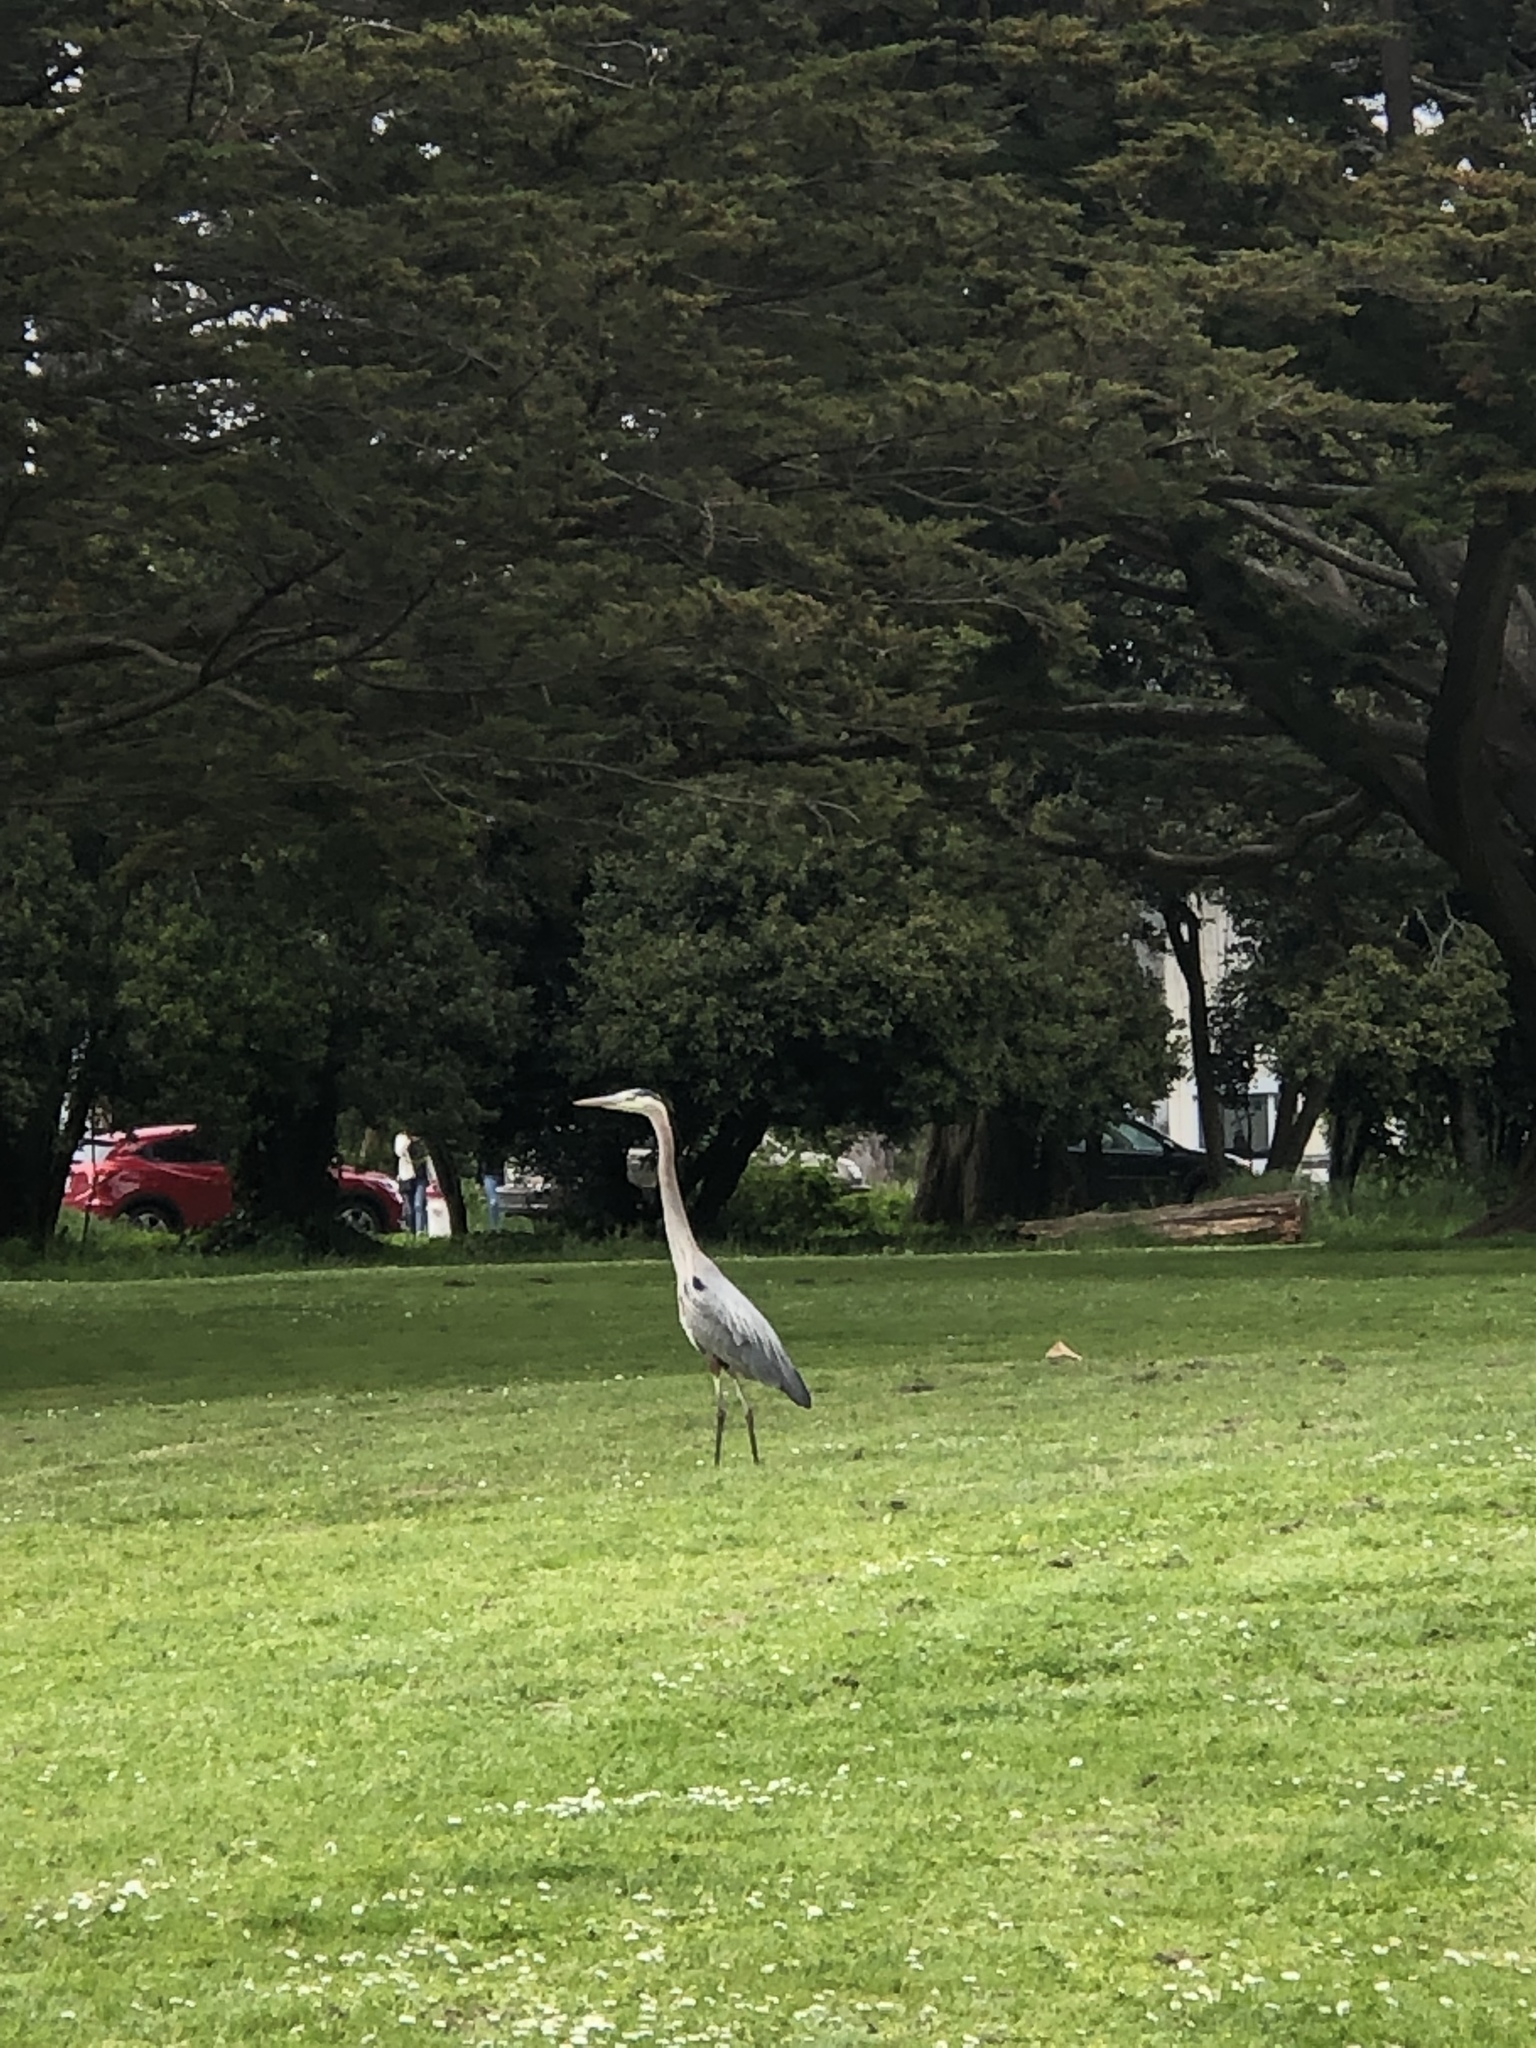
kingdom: Animalia
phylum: Chordata
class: Aves
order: Pelecaniformes
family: Ardeidae
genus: Ardea
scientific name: Ardea herodias
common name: Great blue heron
